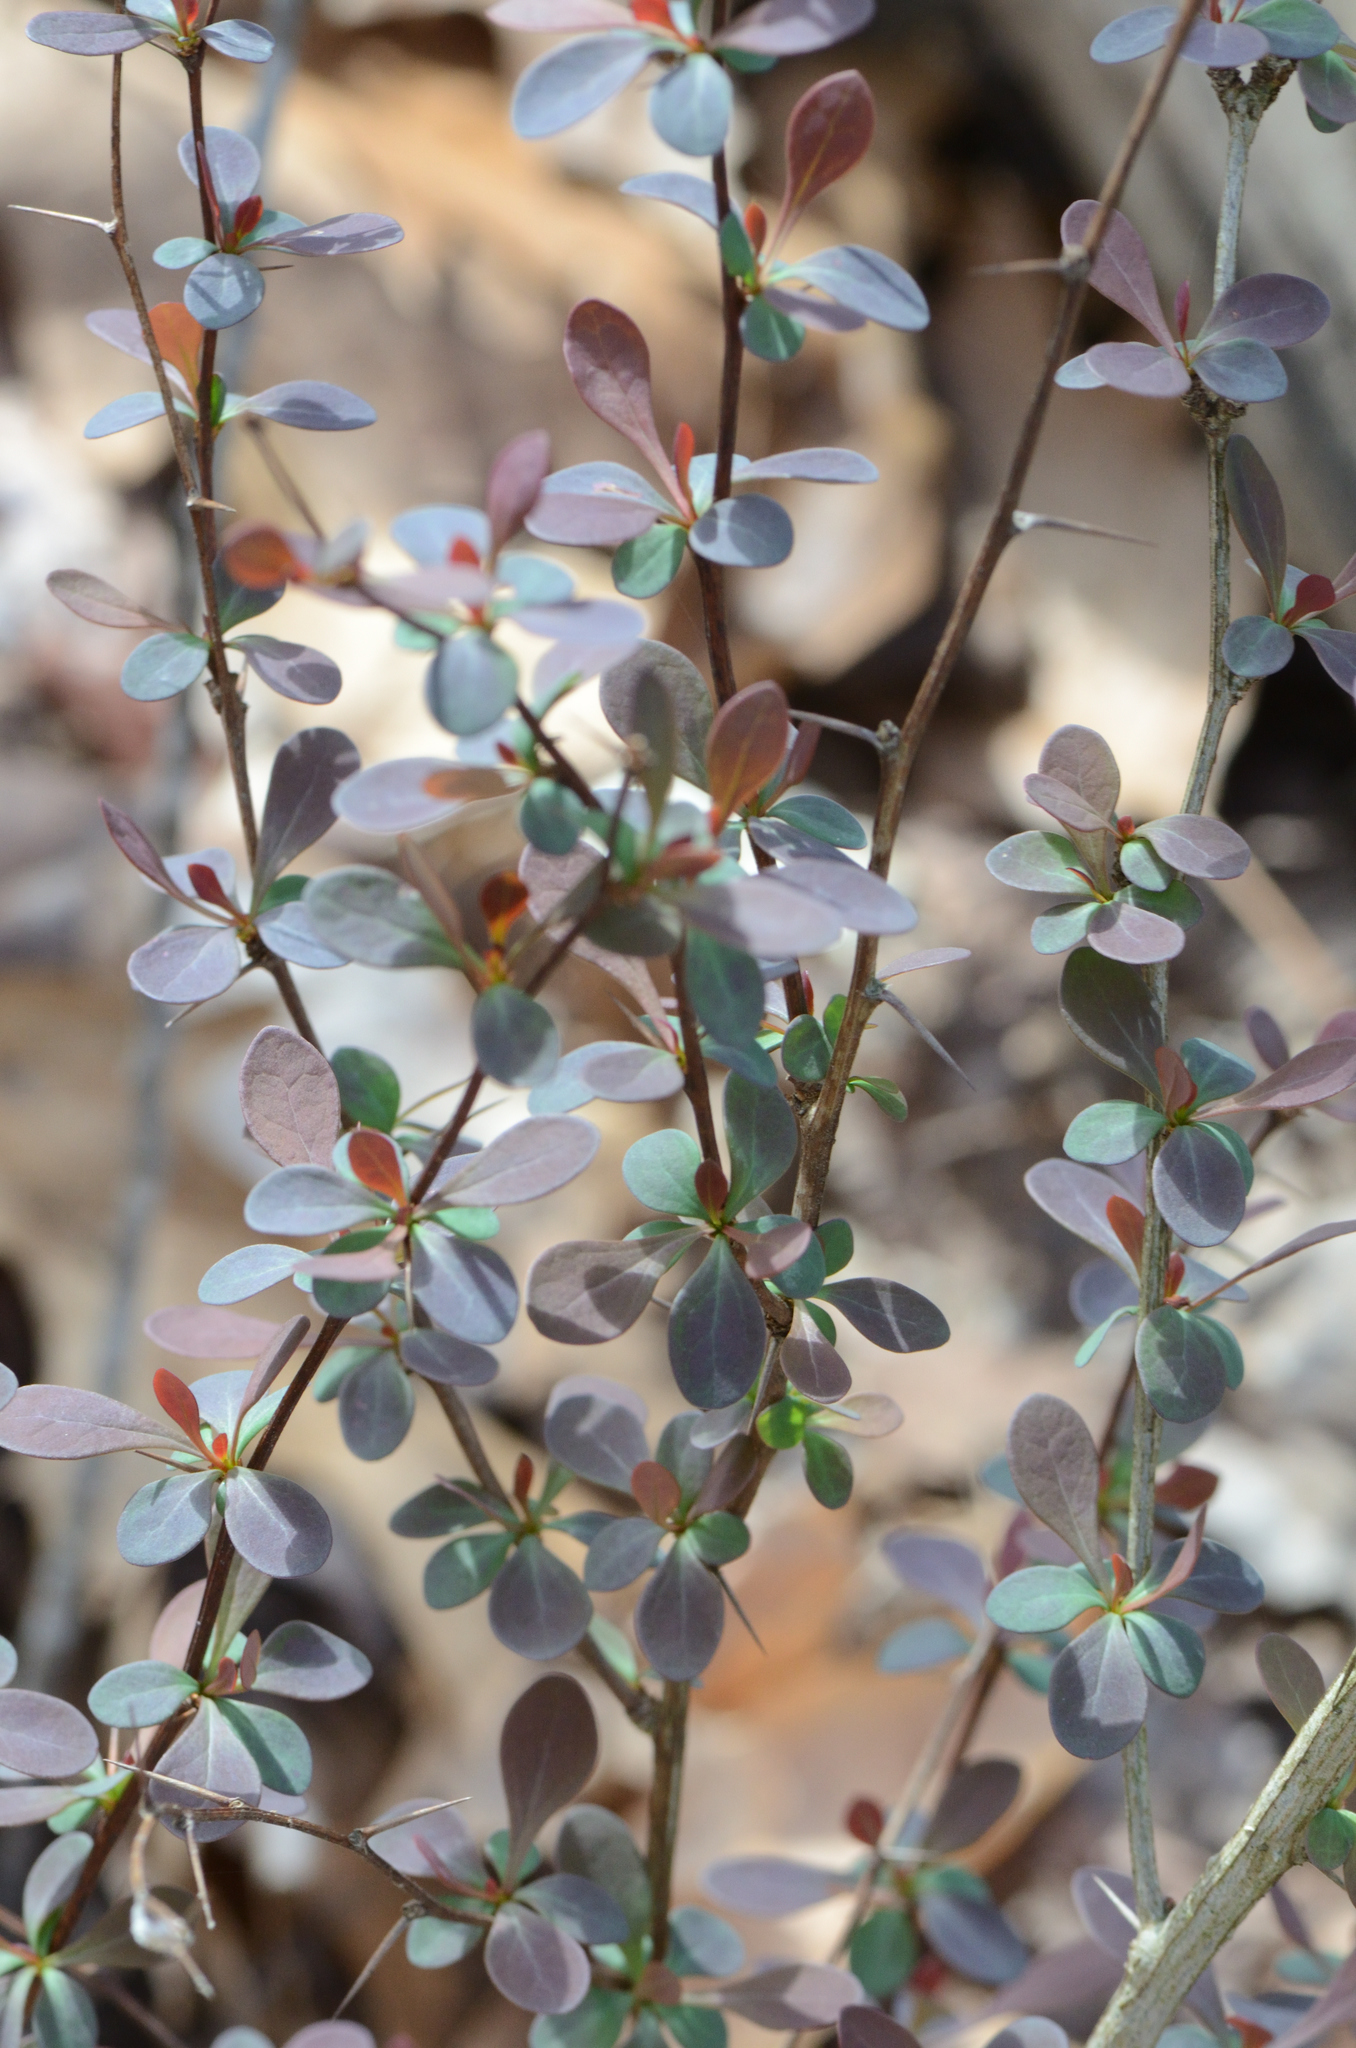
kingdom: Plantae
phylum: Tracheophyta
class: Magnoliopsida
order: Ranunculales
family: Berberidaceae
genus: Berberis
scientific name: Berberis thunbergii
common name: Japanese barberry
